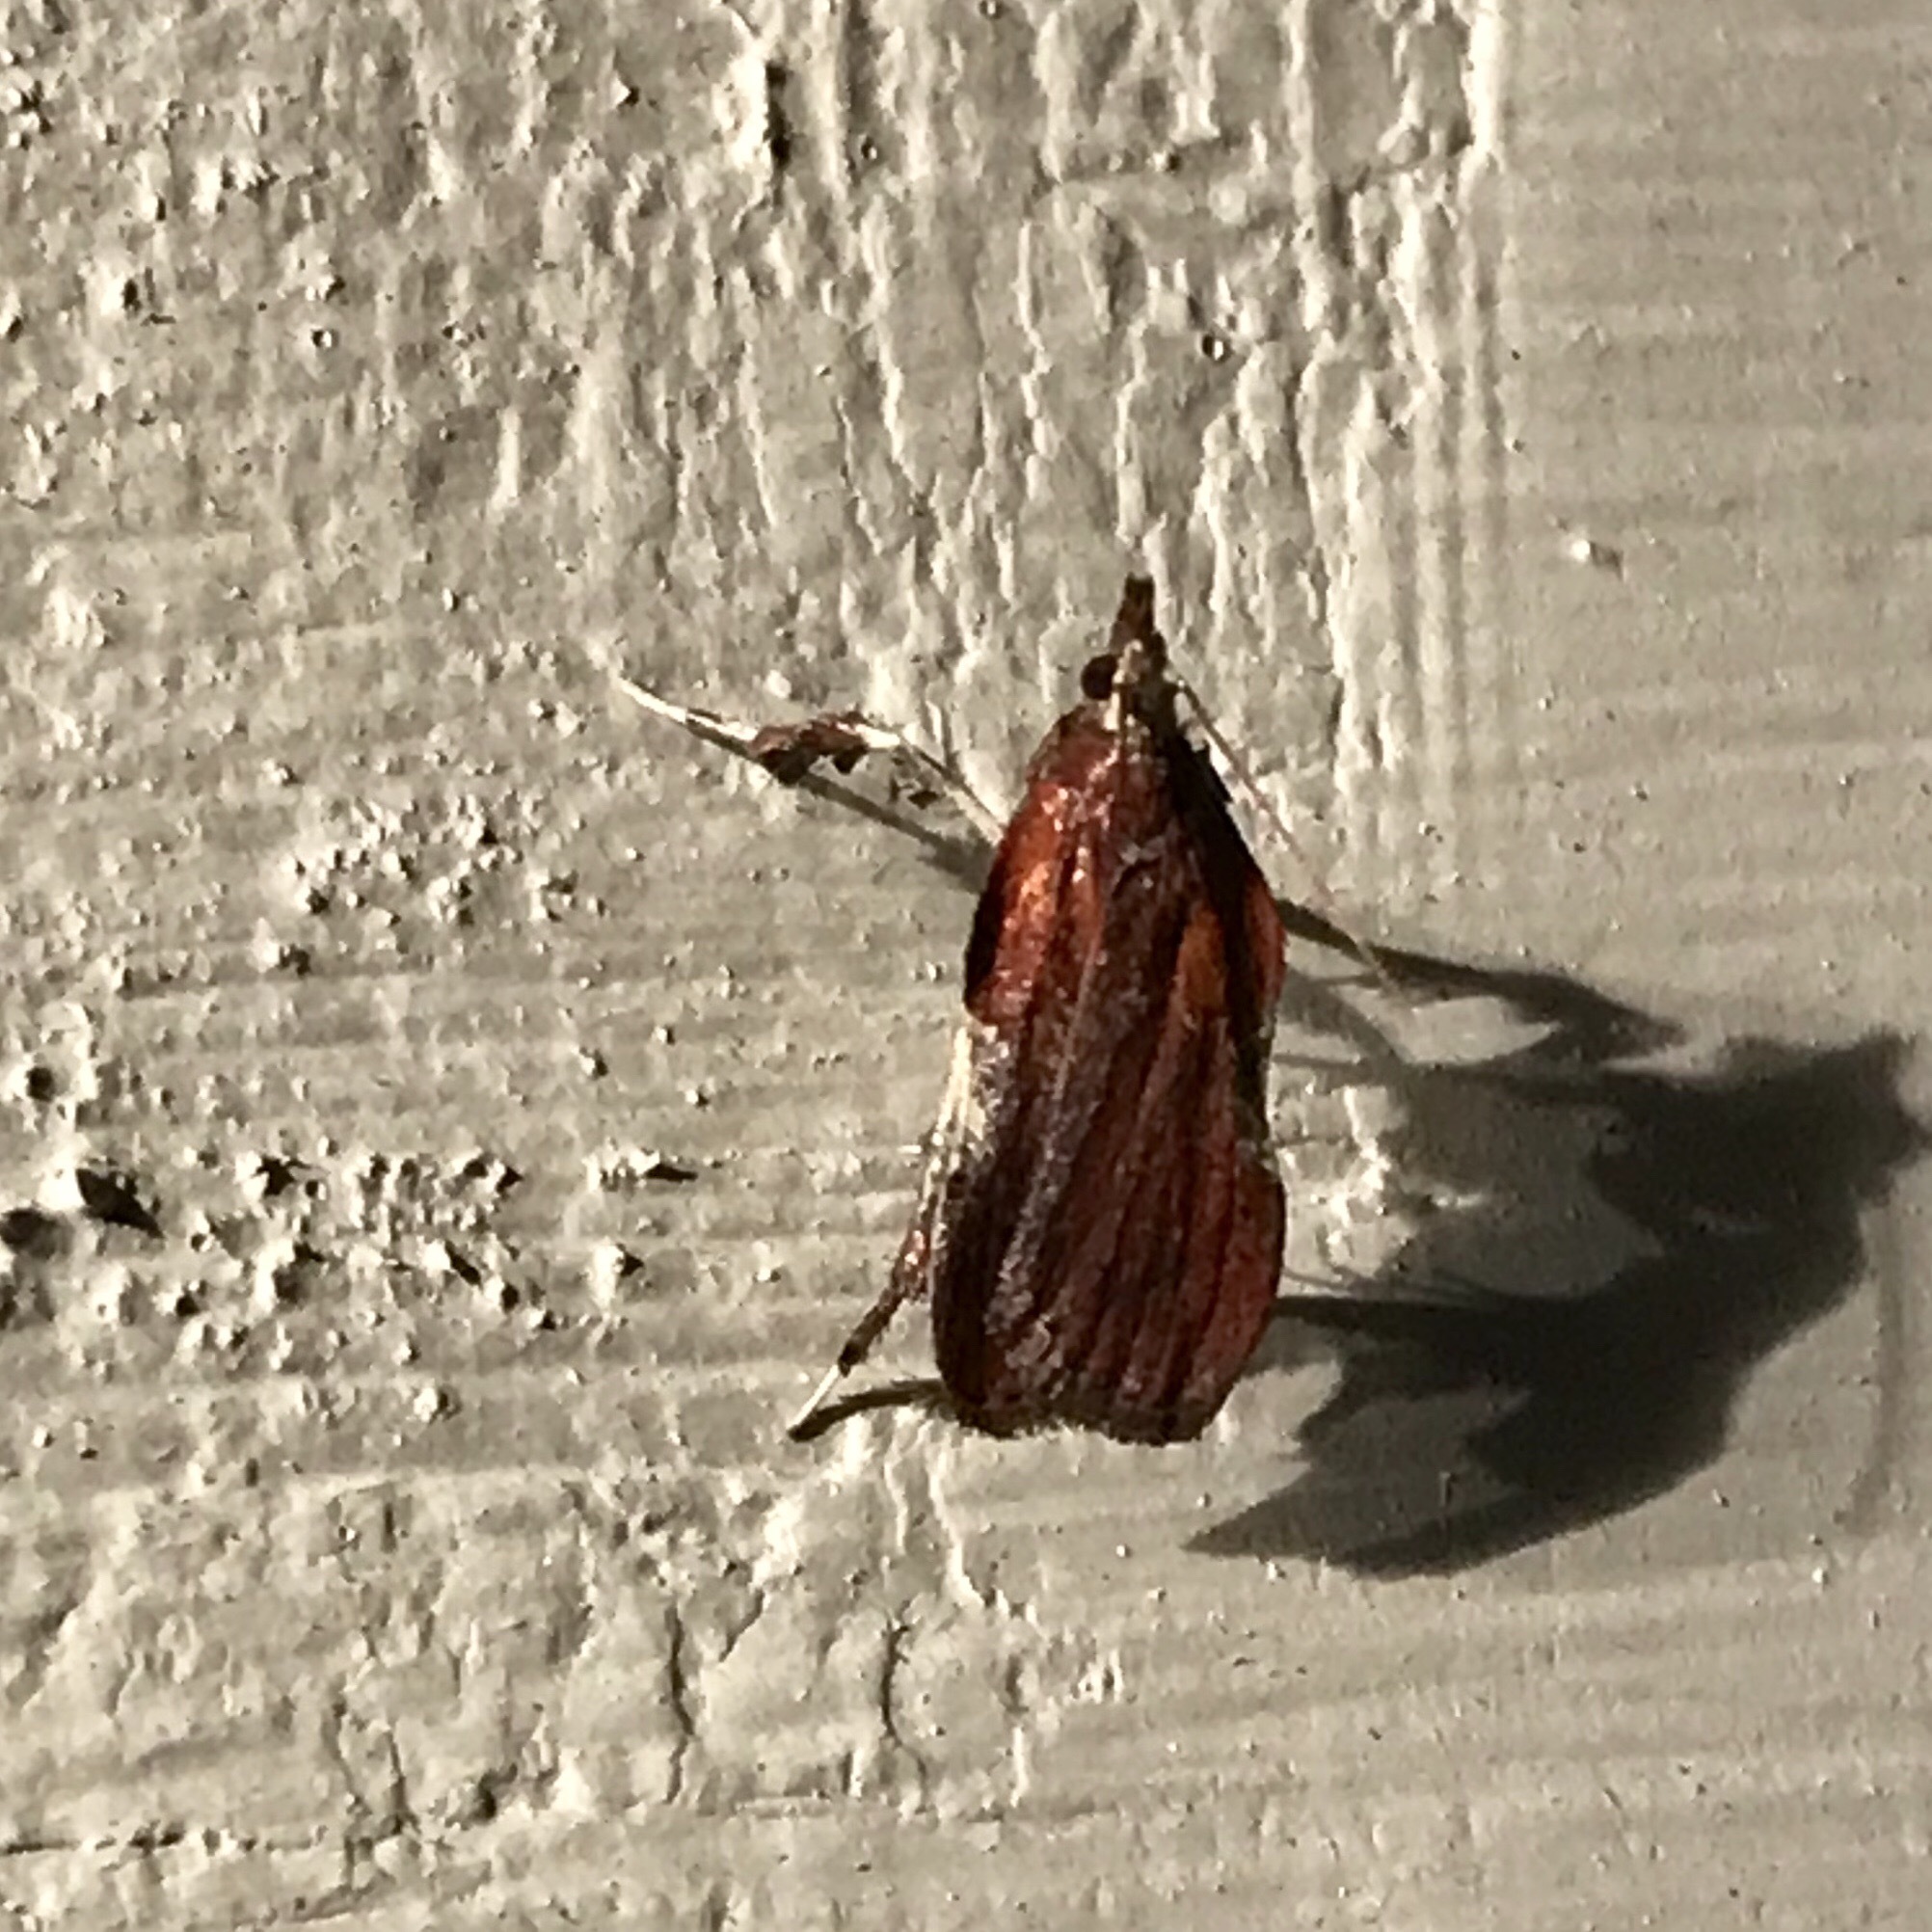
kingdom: Animalia
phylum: Arthropoda
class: Insecta
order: Lepidoptera
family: Pyralidae
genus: Galasa
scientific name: Galasa nigrinodis
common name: Boxwood leaftier moth
